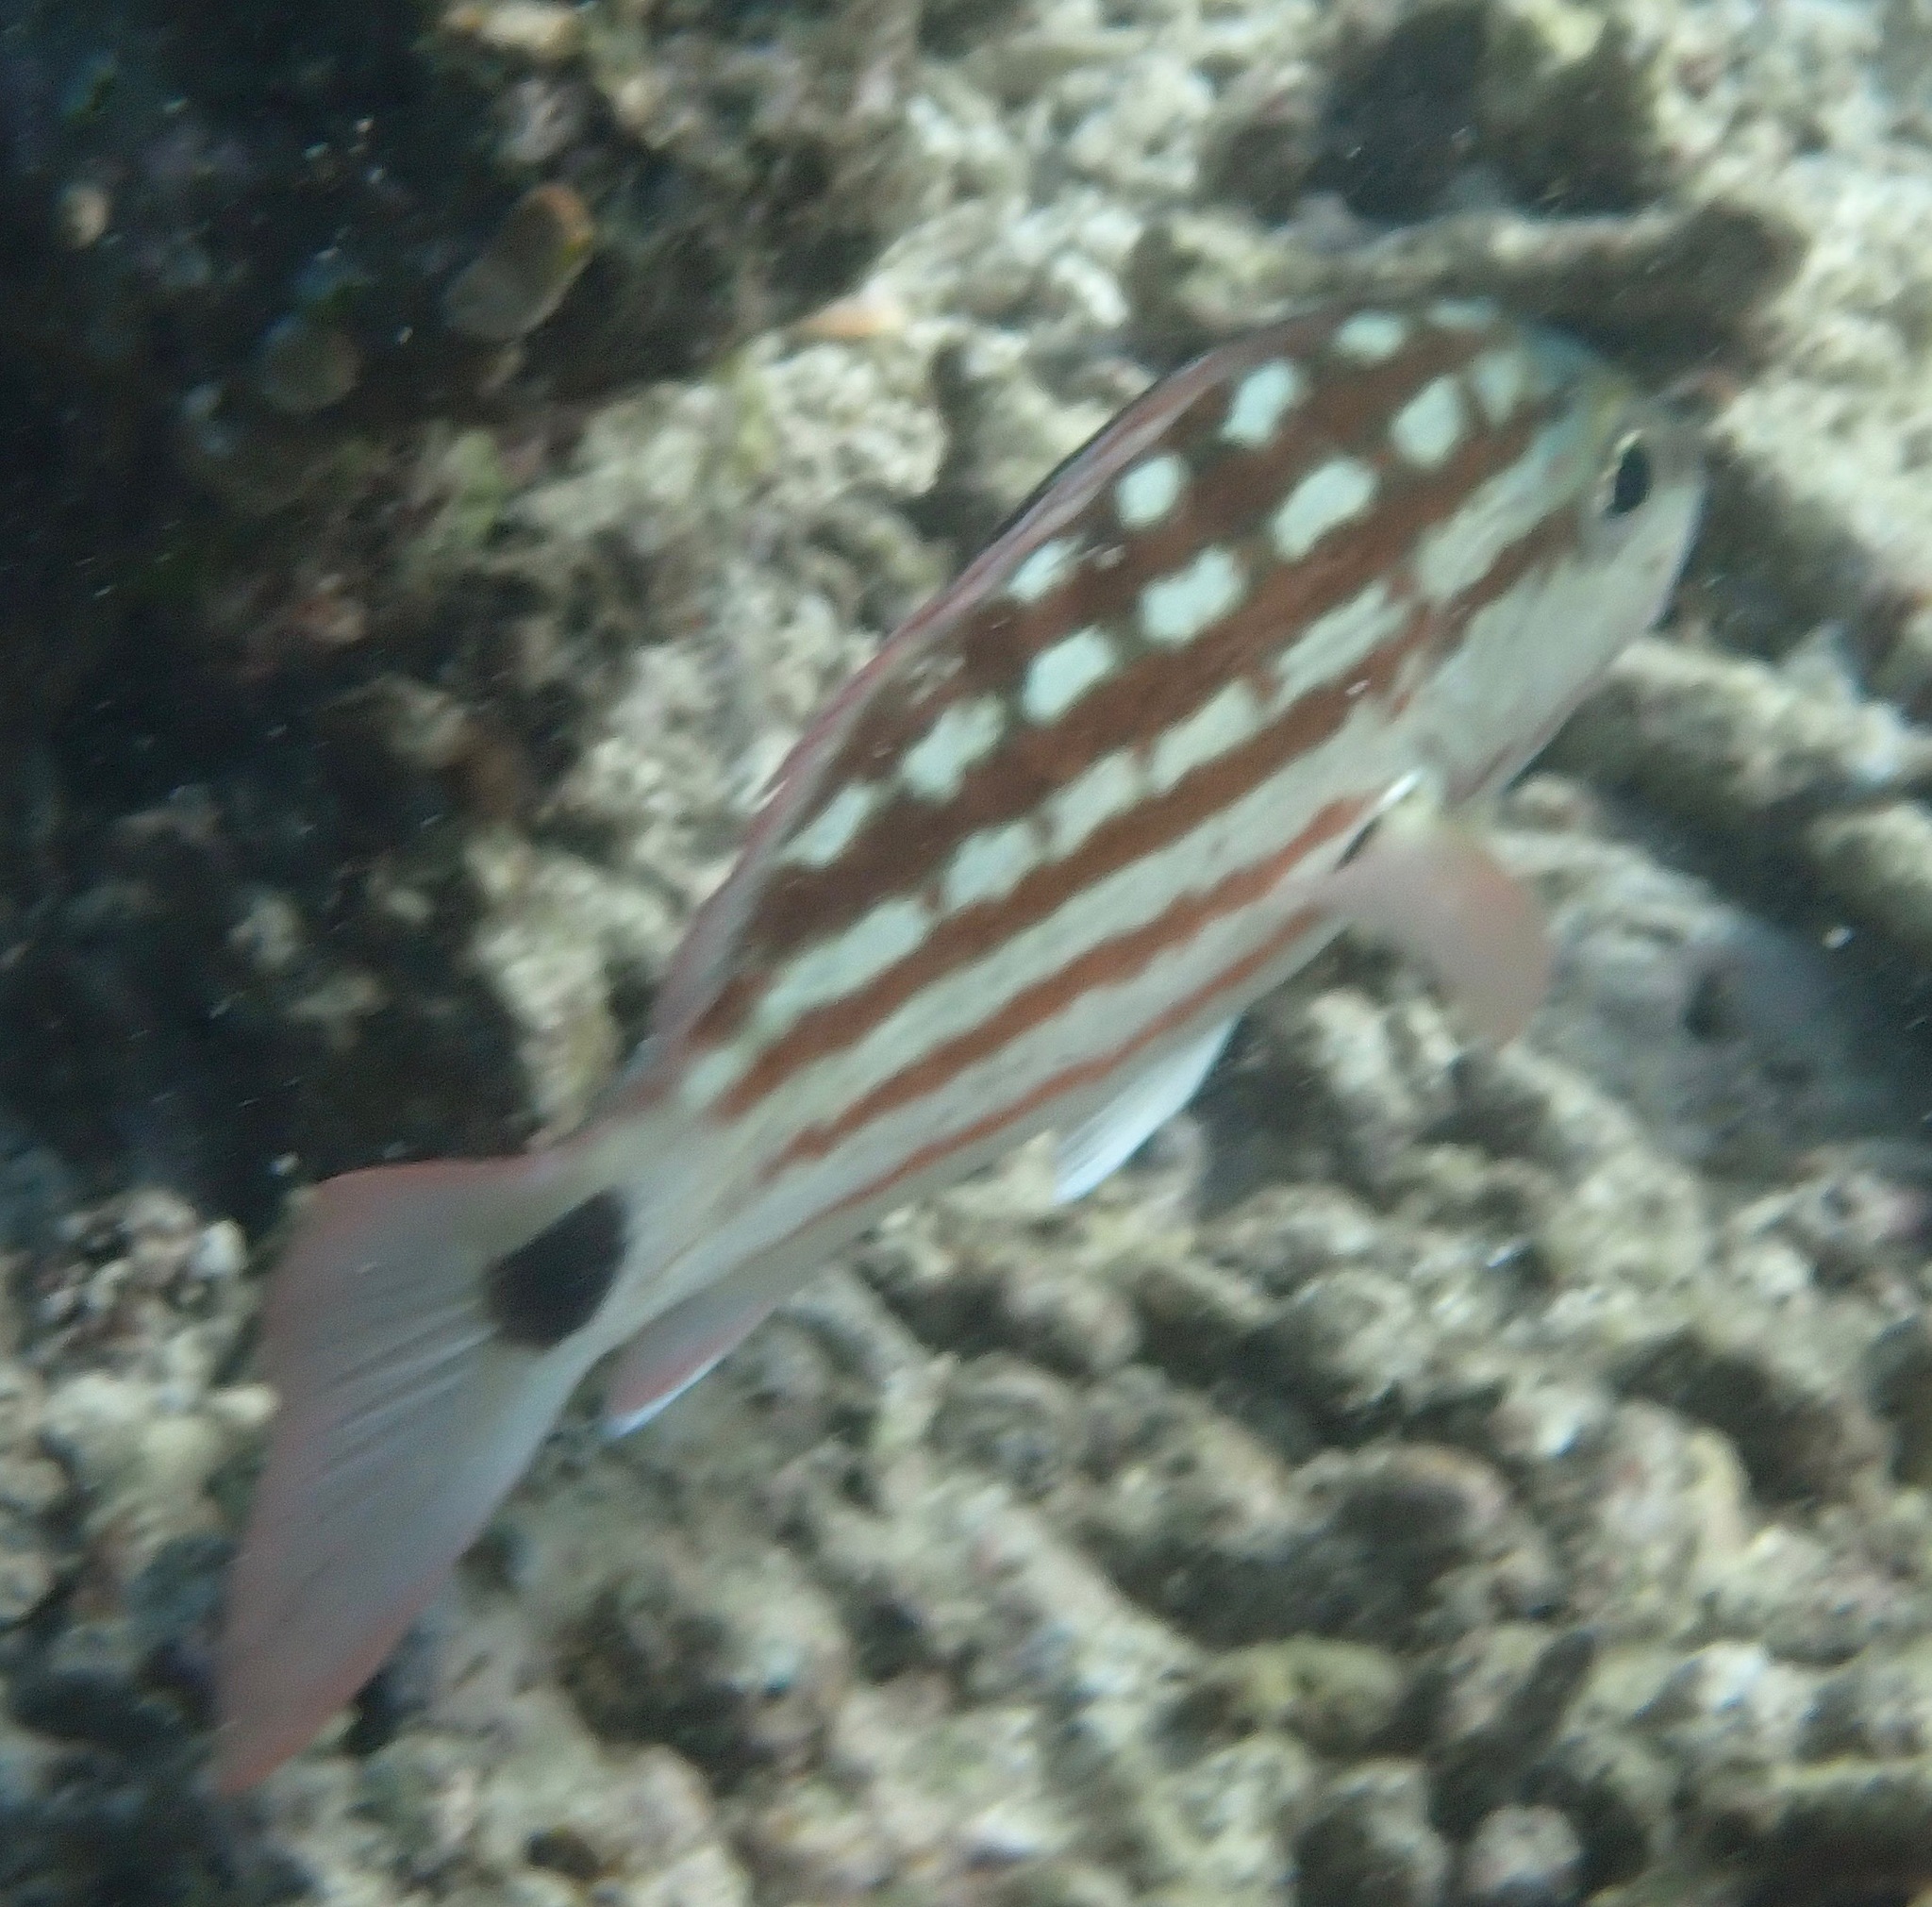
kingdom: Animalia
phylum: Chordata
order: Perciformes
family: Lutjanidae
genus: Lutjanus
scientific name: Lutjanus decussatus
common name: Checkered snapper
